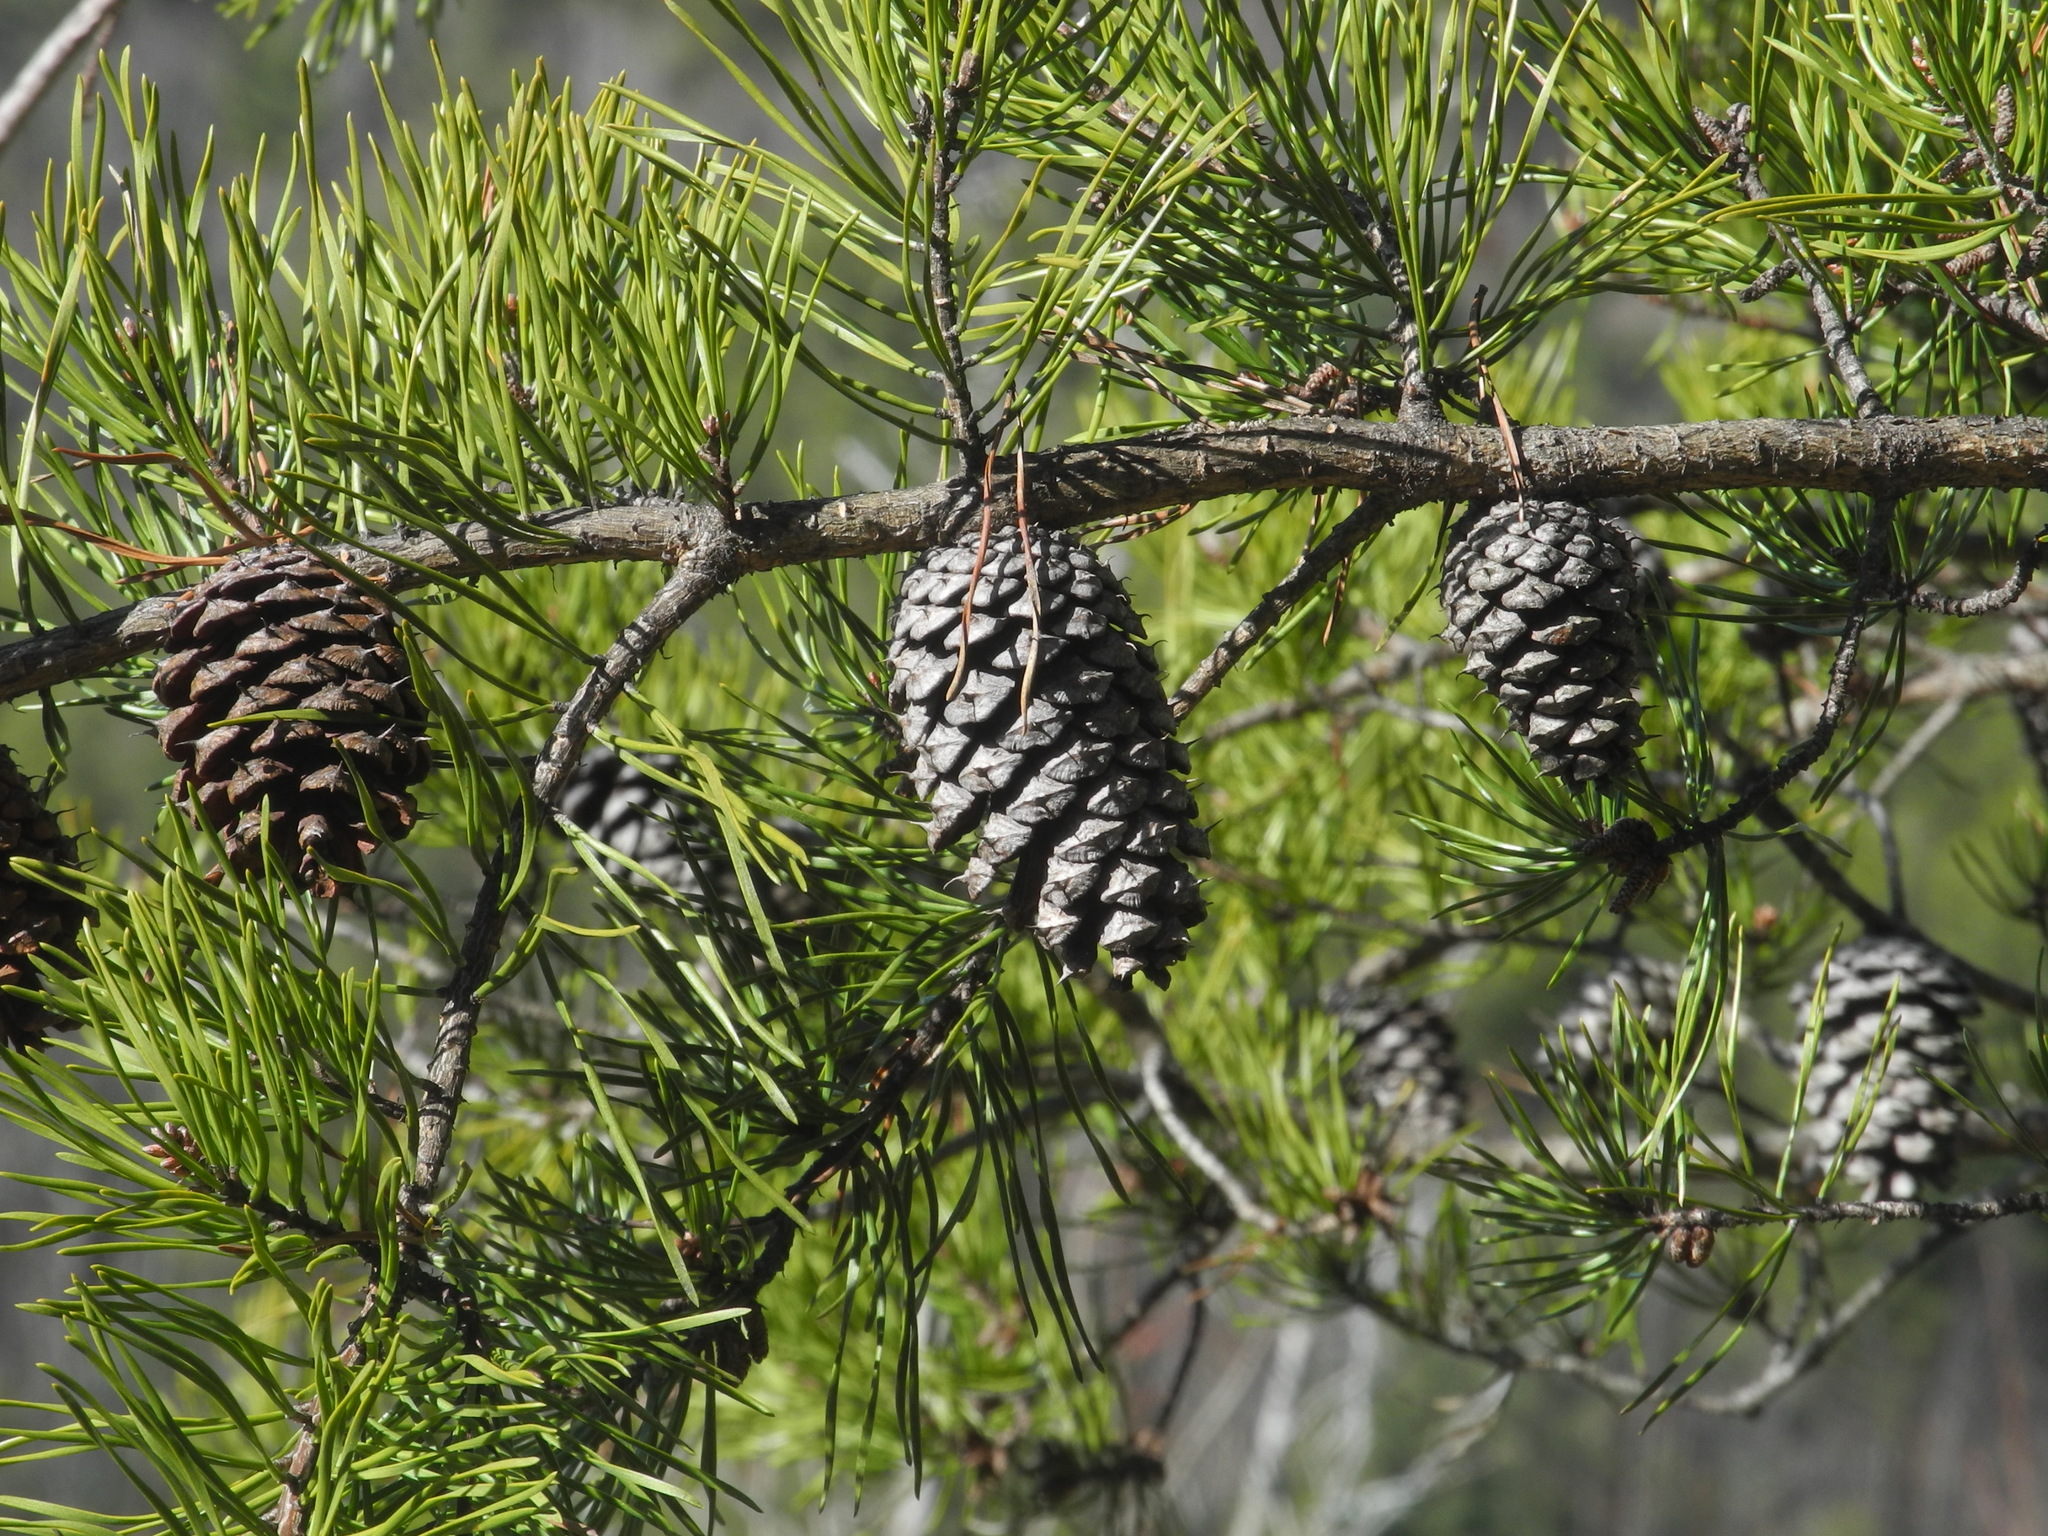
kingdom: Plantae
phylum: Tracheophyta
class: Pinopsida
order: Pinales
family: Pinaceae
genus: Pinus
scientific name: Pinus virginiana
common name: Scrub pine
